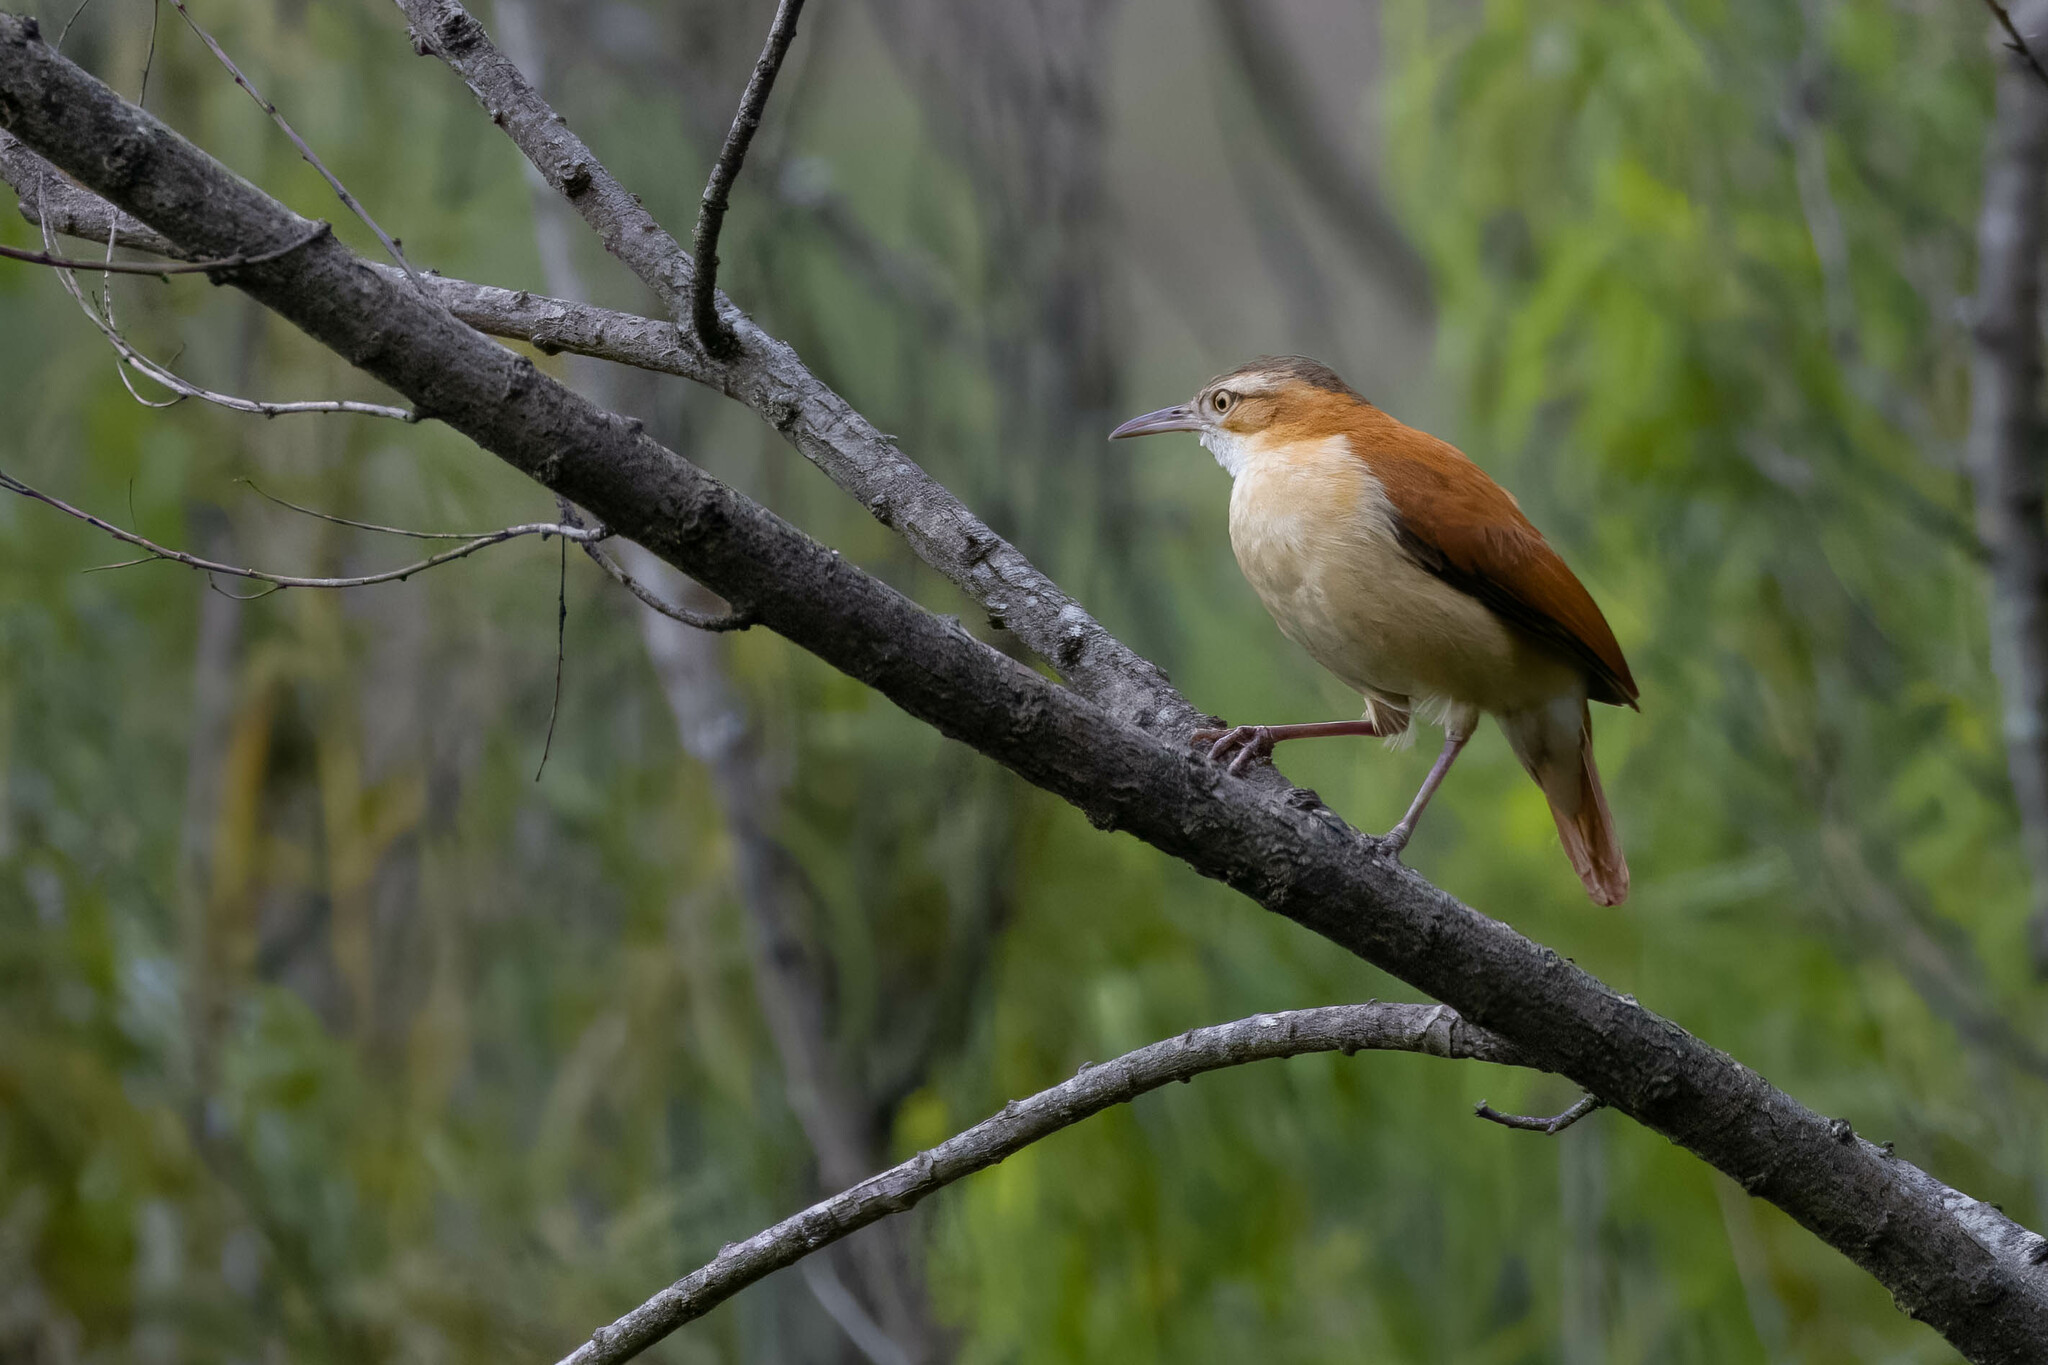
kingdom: Animalia
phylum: Chordata
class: Aves
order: Passeriformes
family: Furnariidae
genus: Furnarius
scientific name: Furnarius leucopus
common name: Pale-legged hornero
